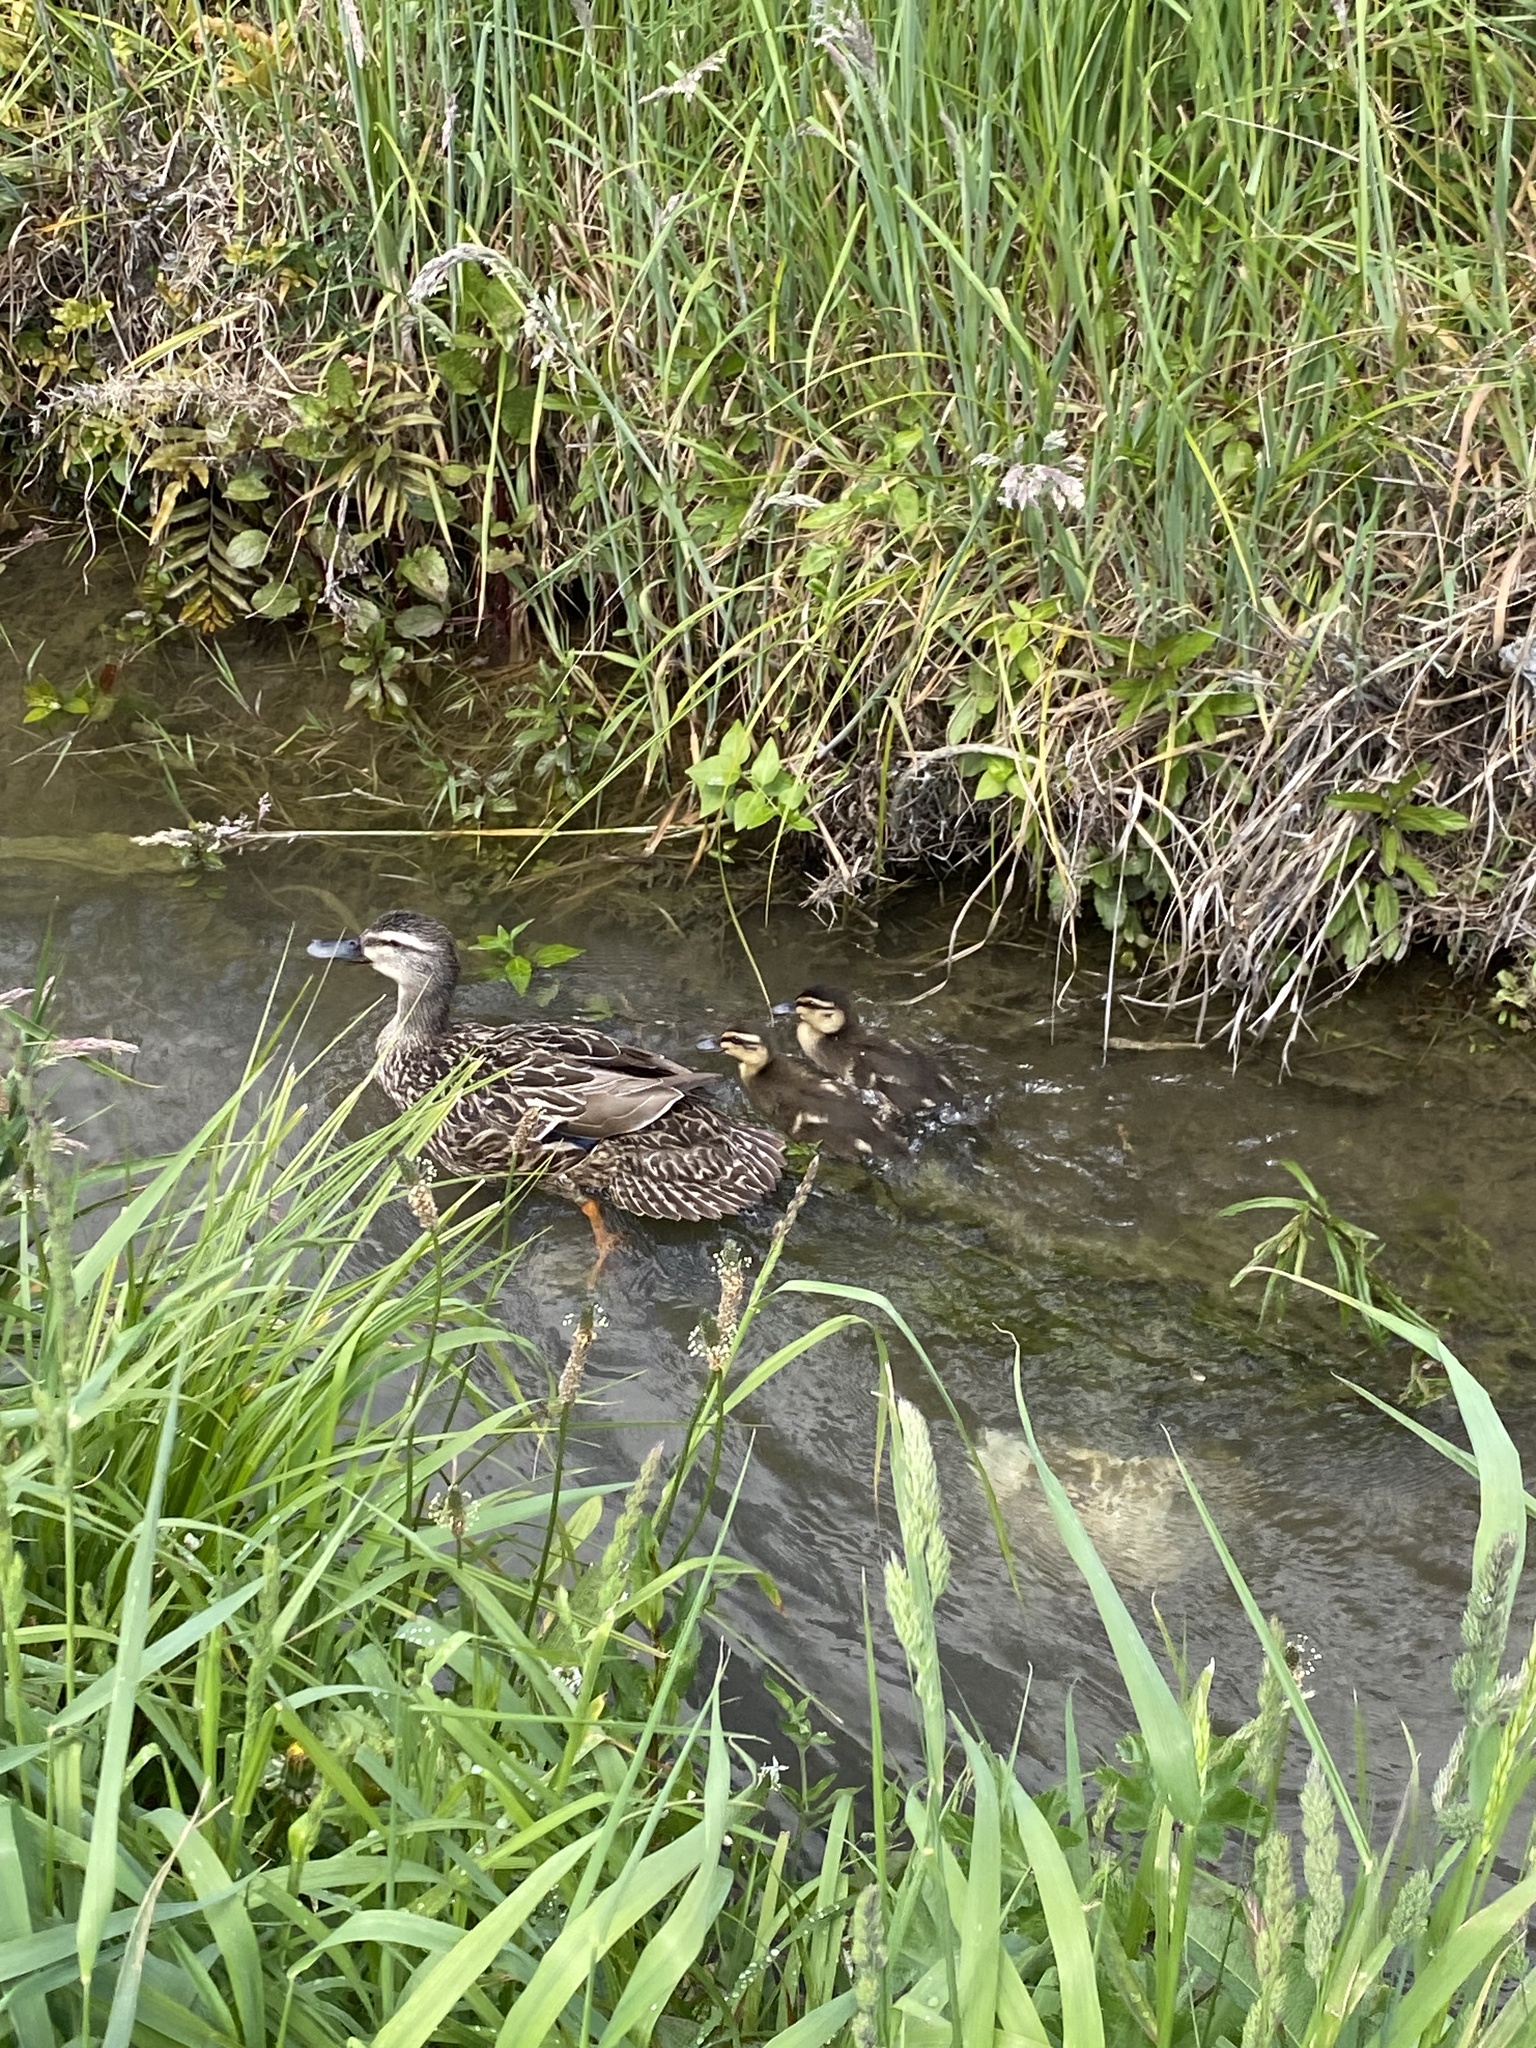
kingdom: Animalia
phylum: Chordata
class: Aves
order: Anseriformes
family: Anatidae
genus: Anas
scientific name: Anas
